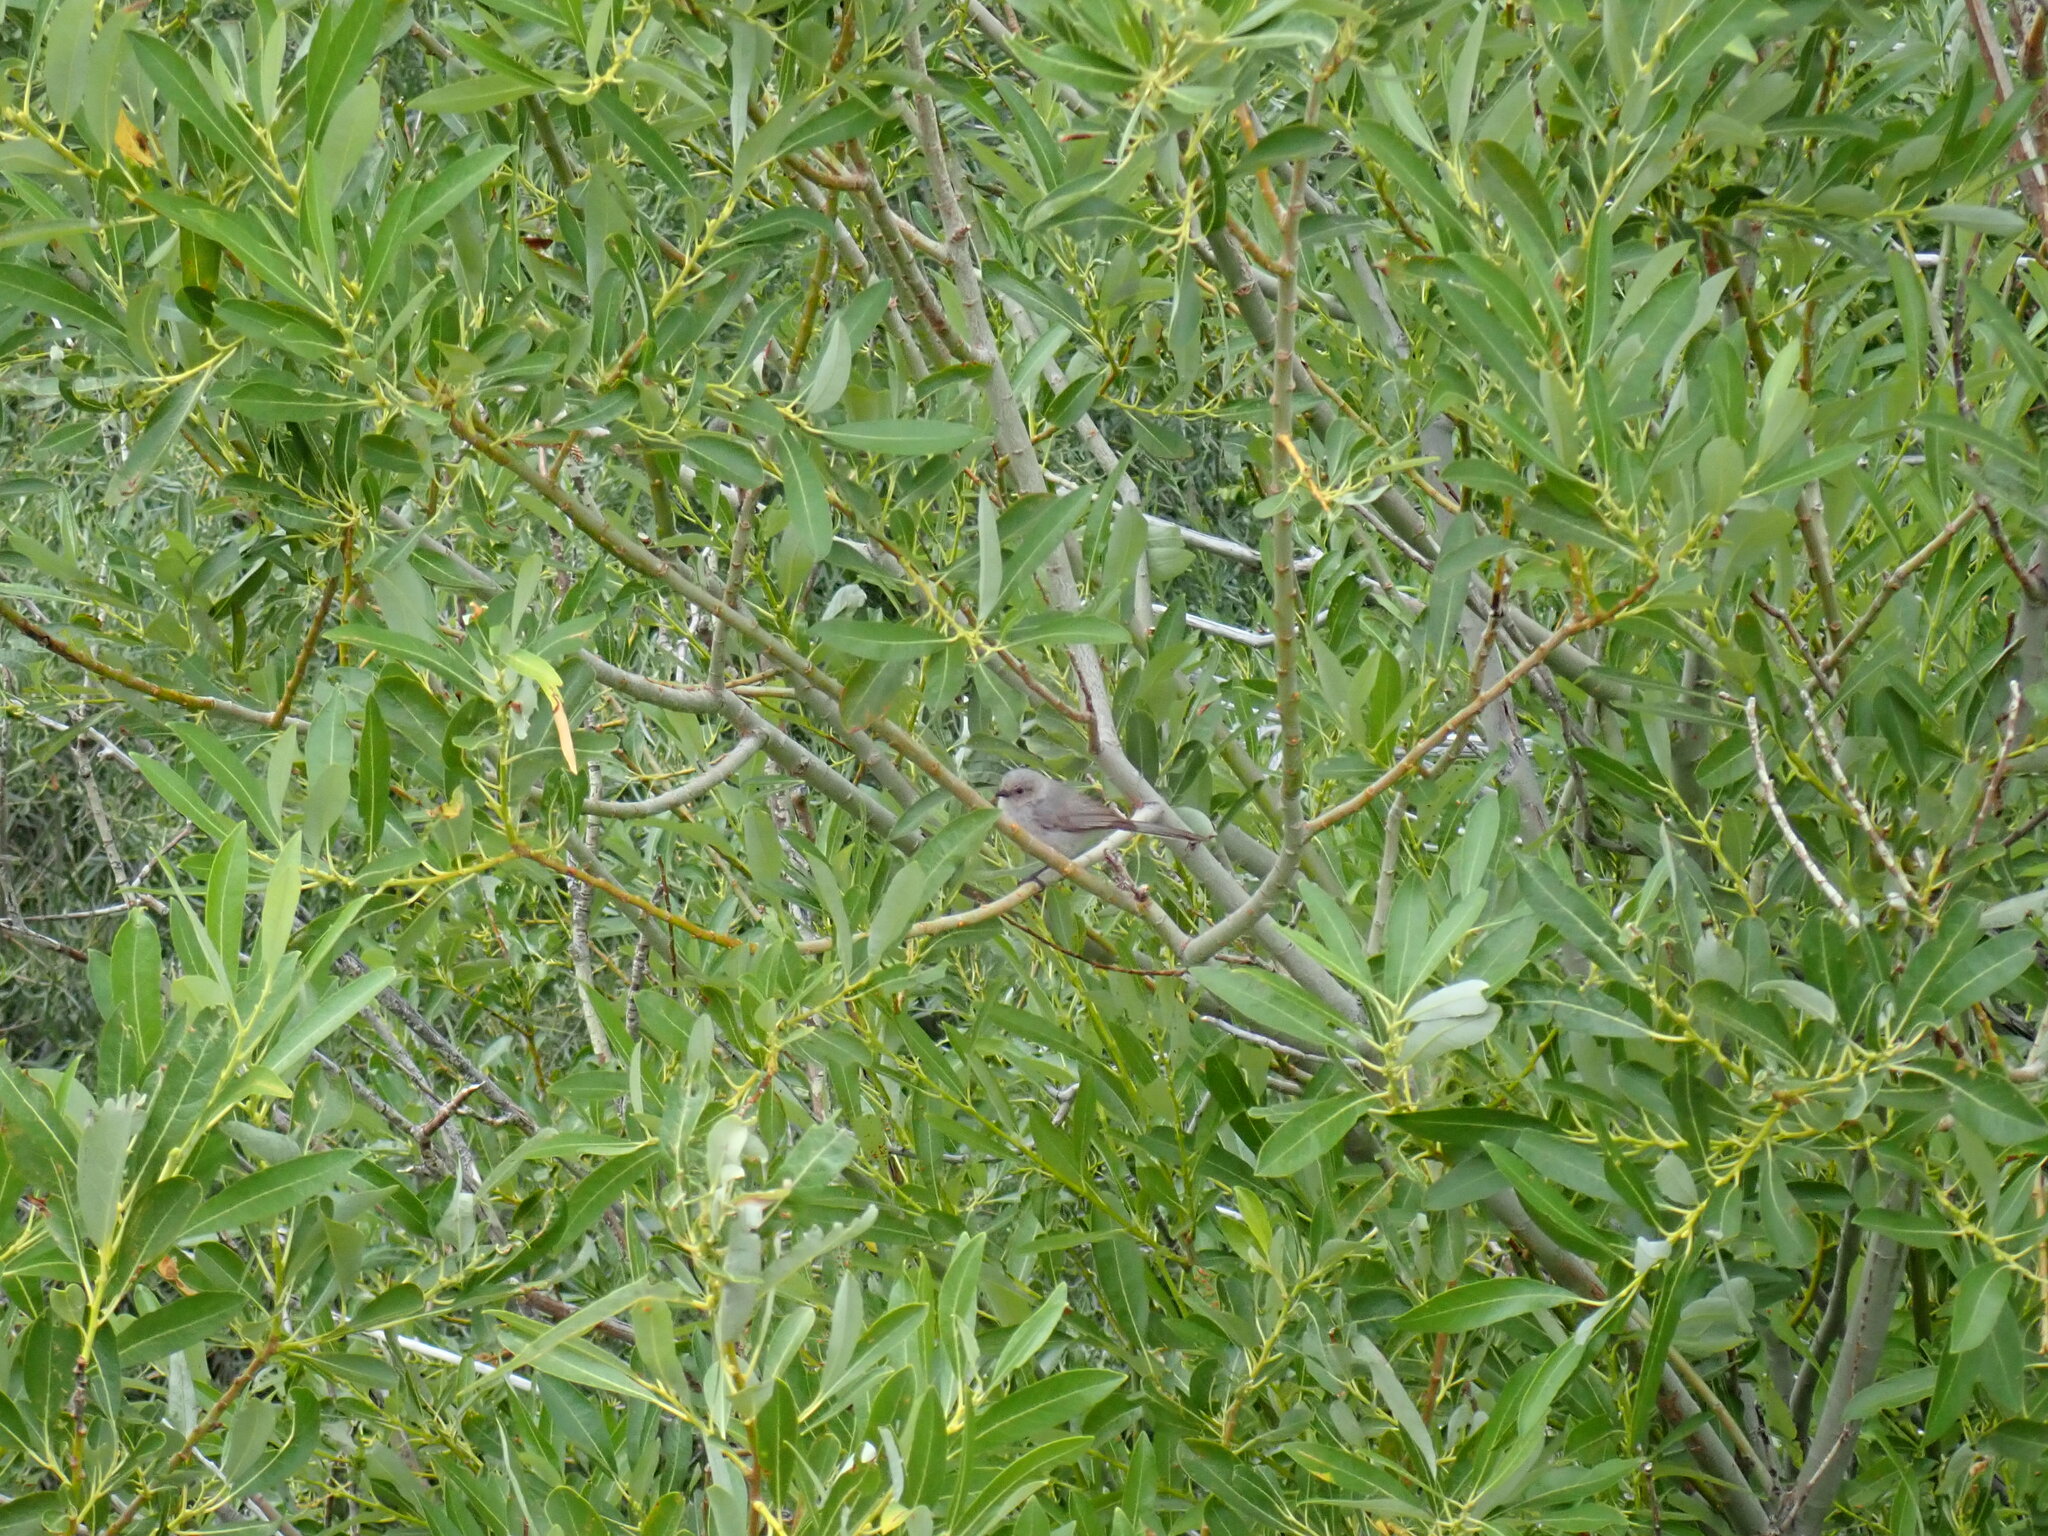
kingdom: Animalia
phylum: Chordata
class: Aves
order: Passeriformes
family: Aegithalidae
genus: Psaltriparus
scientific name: Psaltriparus minimus
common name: American bushtit
